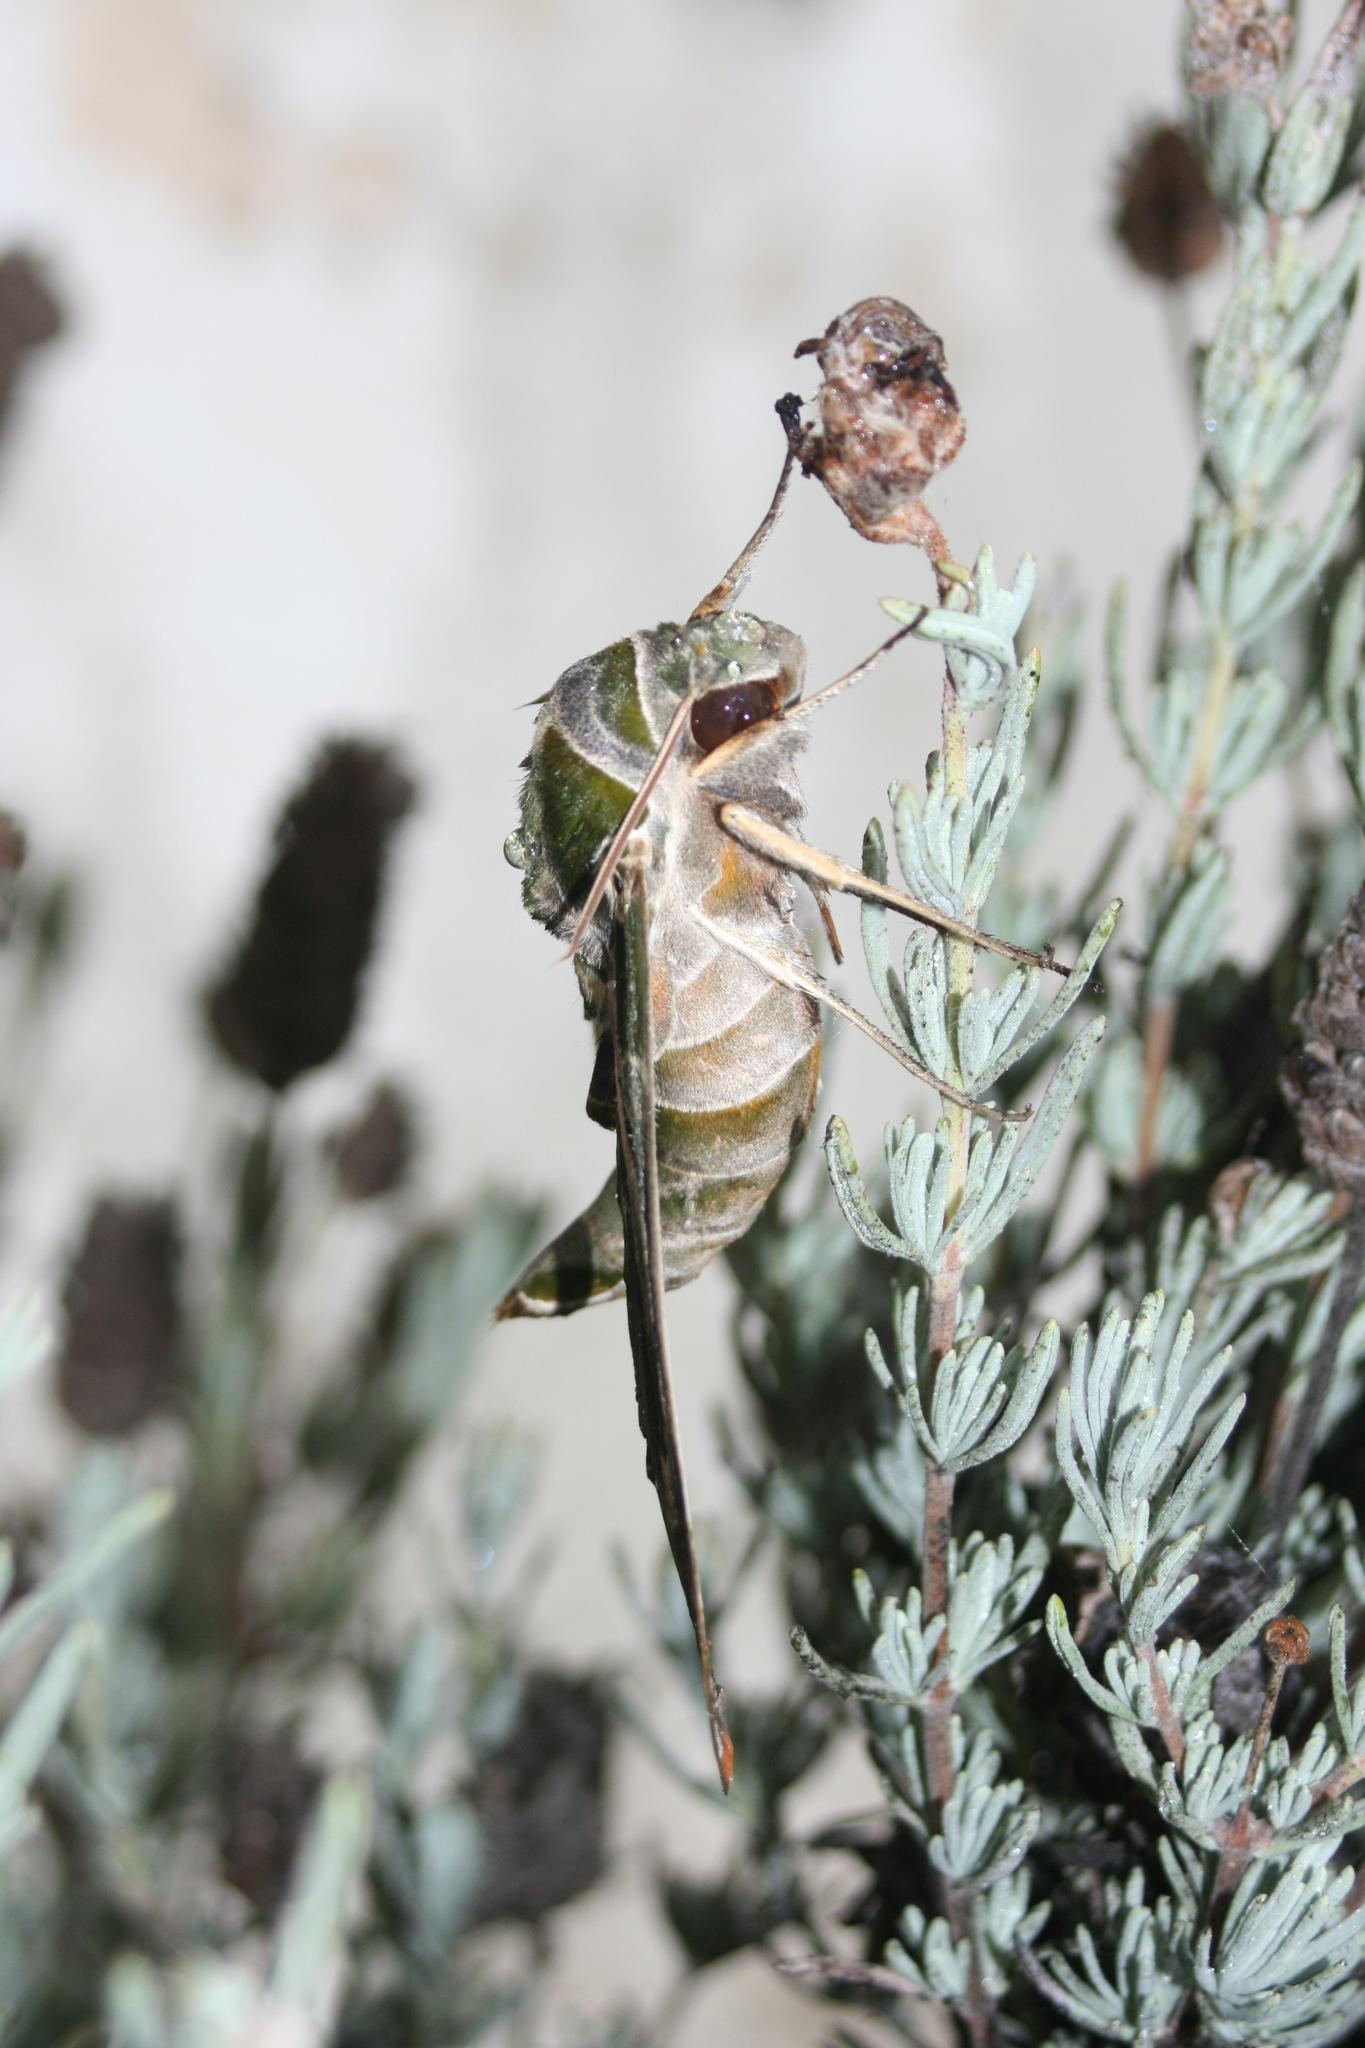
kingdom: Animalia
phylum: Arthropoda
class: Insecta
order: Lepidoptera
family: Sphingidae
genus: Daphnis
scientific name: Daphnis nerii
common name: Oleander hawk-moth
